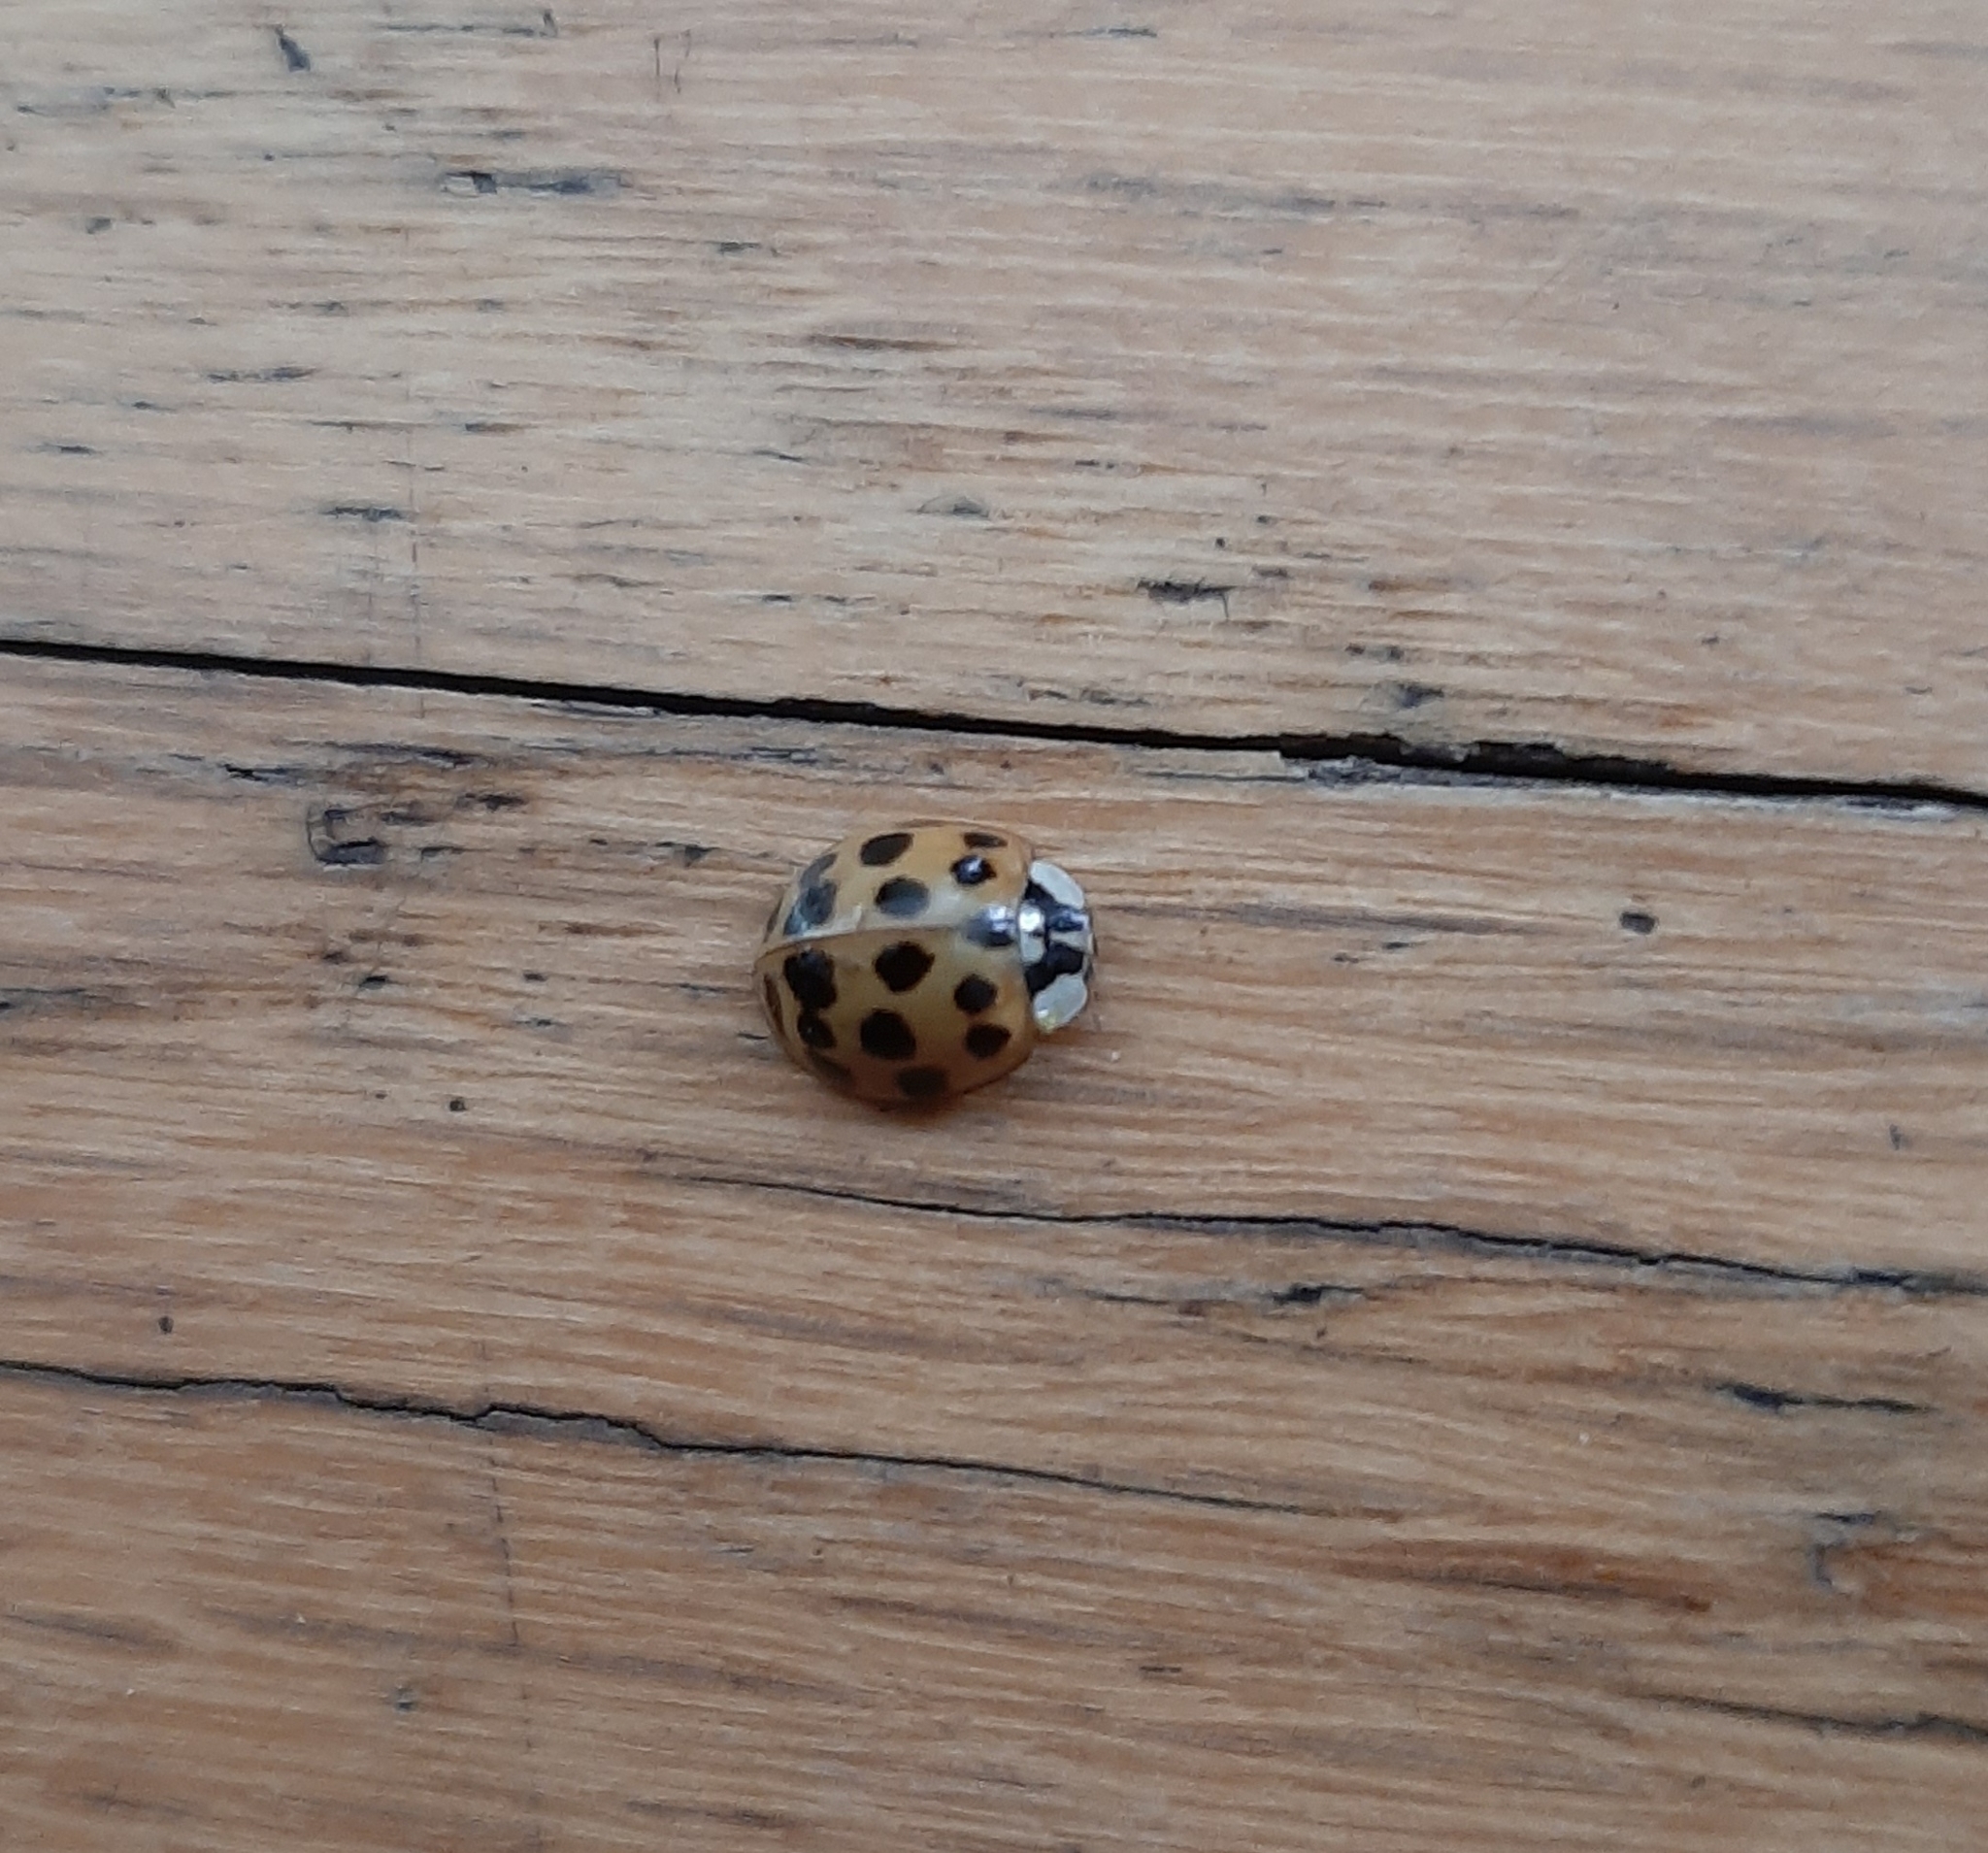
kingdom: Animalia
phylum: Arthropoda
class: Insecta
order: Coleoptera
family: Coccinellidae
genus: Harmonia
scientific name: Harmonia axyridis
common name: Harlequin ladybird
